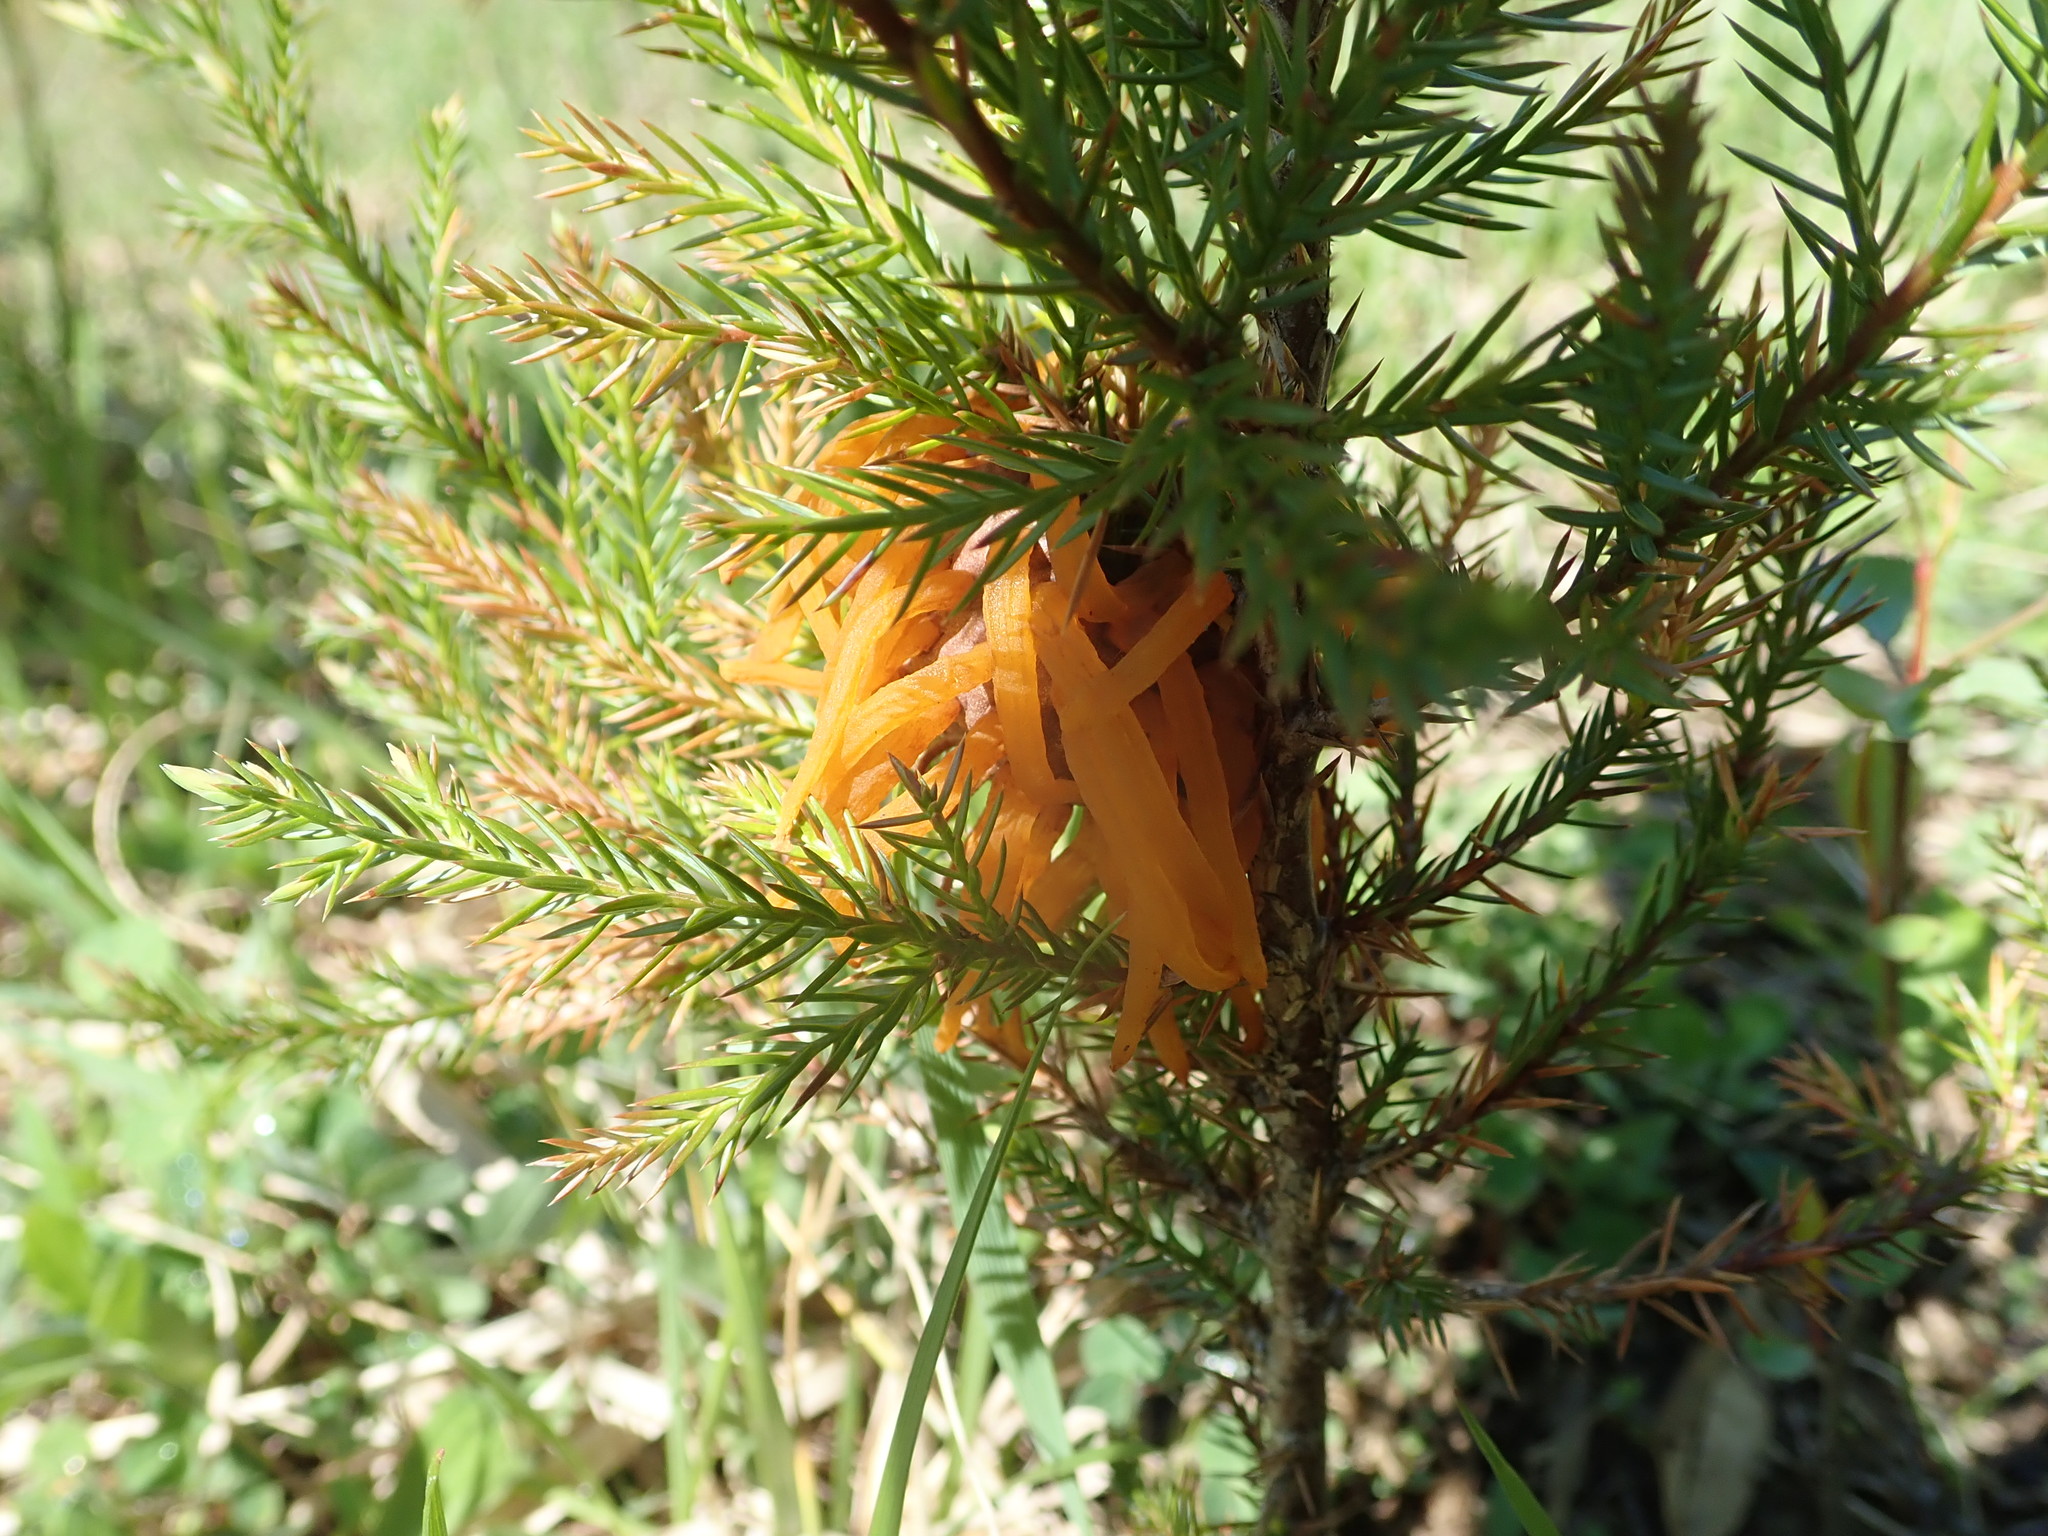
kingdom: Fungi
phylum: Basidiomycota
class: Pucciniomycetes
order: Pucciniales
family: Gymnosporangiaceae
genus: Gymnosporangium
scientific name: Gymnosporangium juniperi-virginianae
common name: Juniper-apple rust
